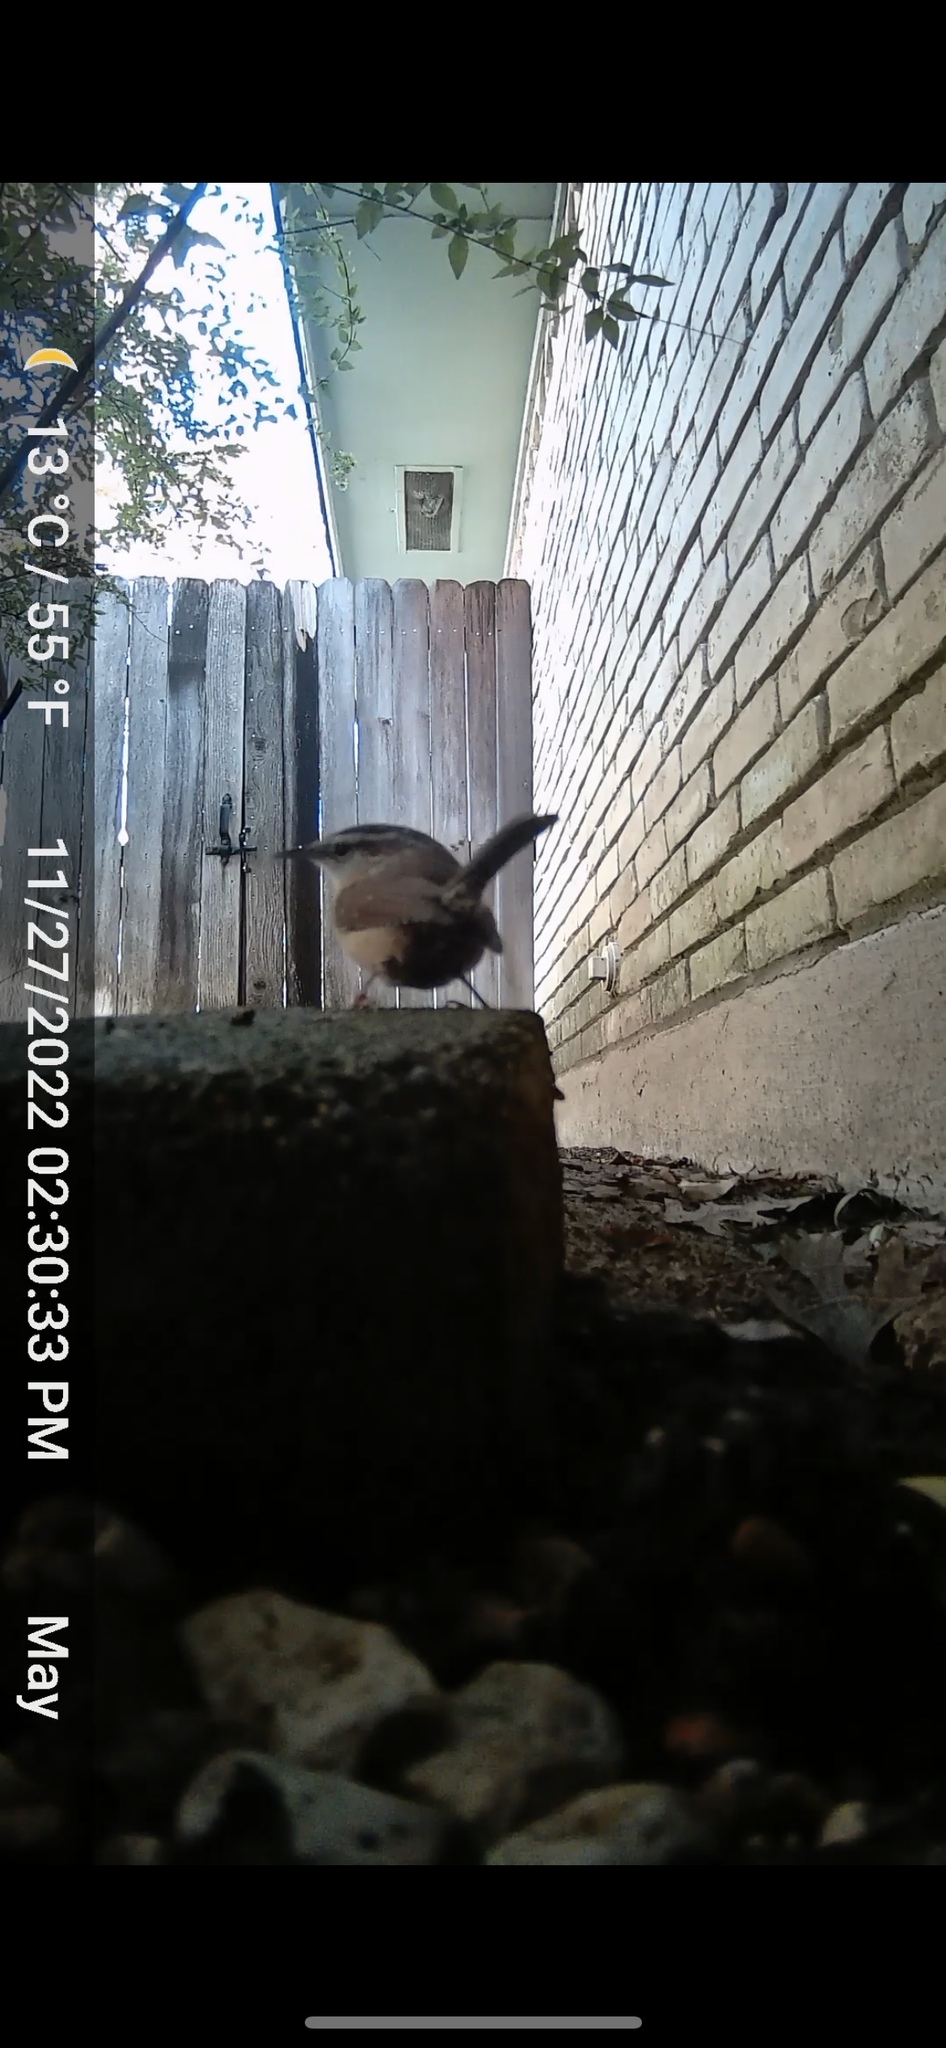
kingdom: Animalia
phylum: Chordata
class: Aves
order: Passeriformes
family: Troglodytidae
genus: Thryothorus
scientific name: Thryothorus ludovicianus
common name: Carolina wren
